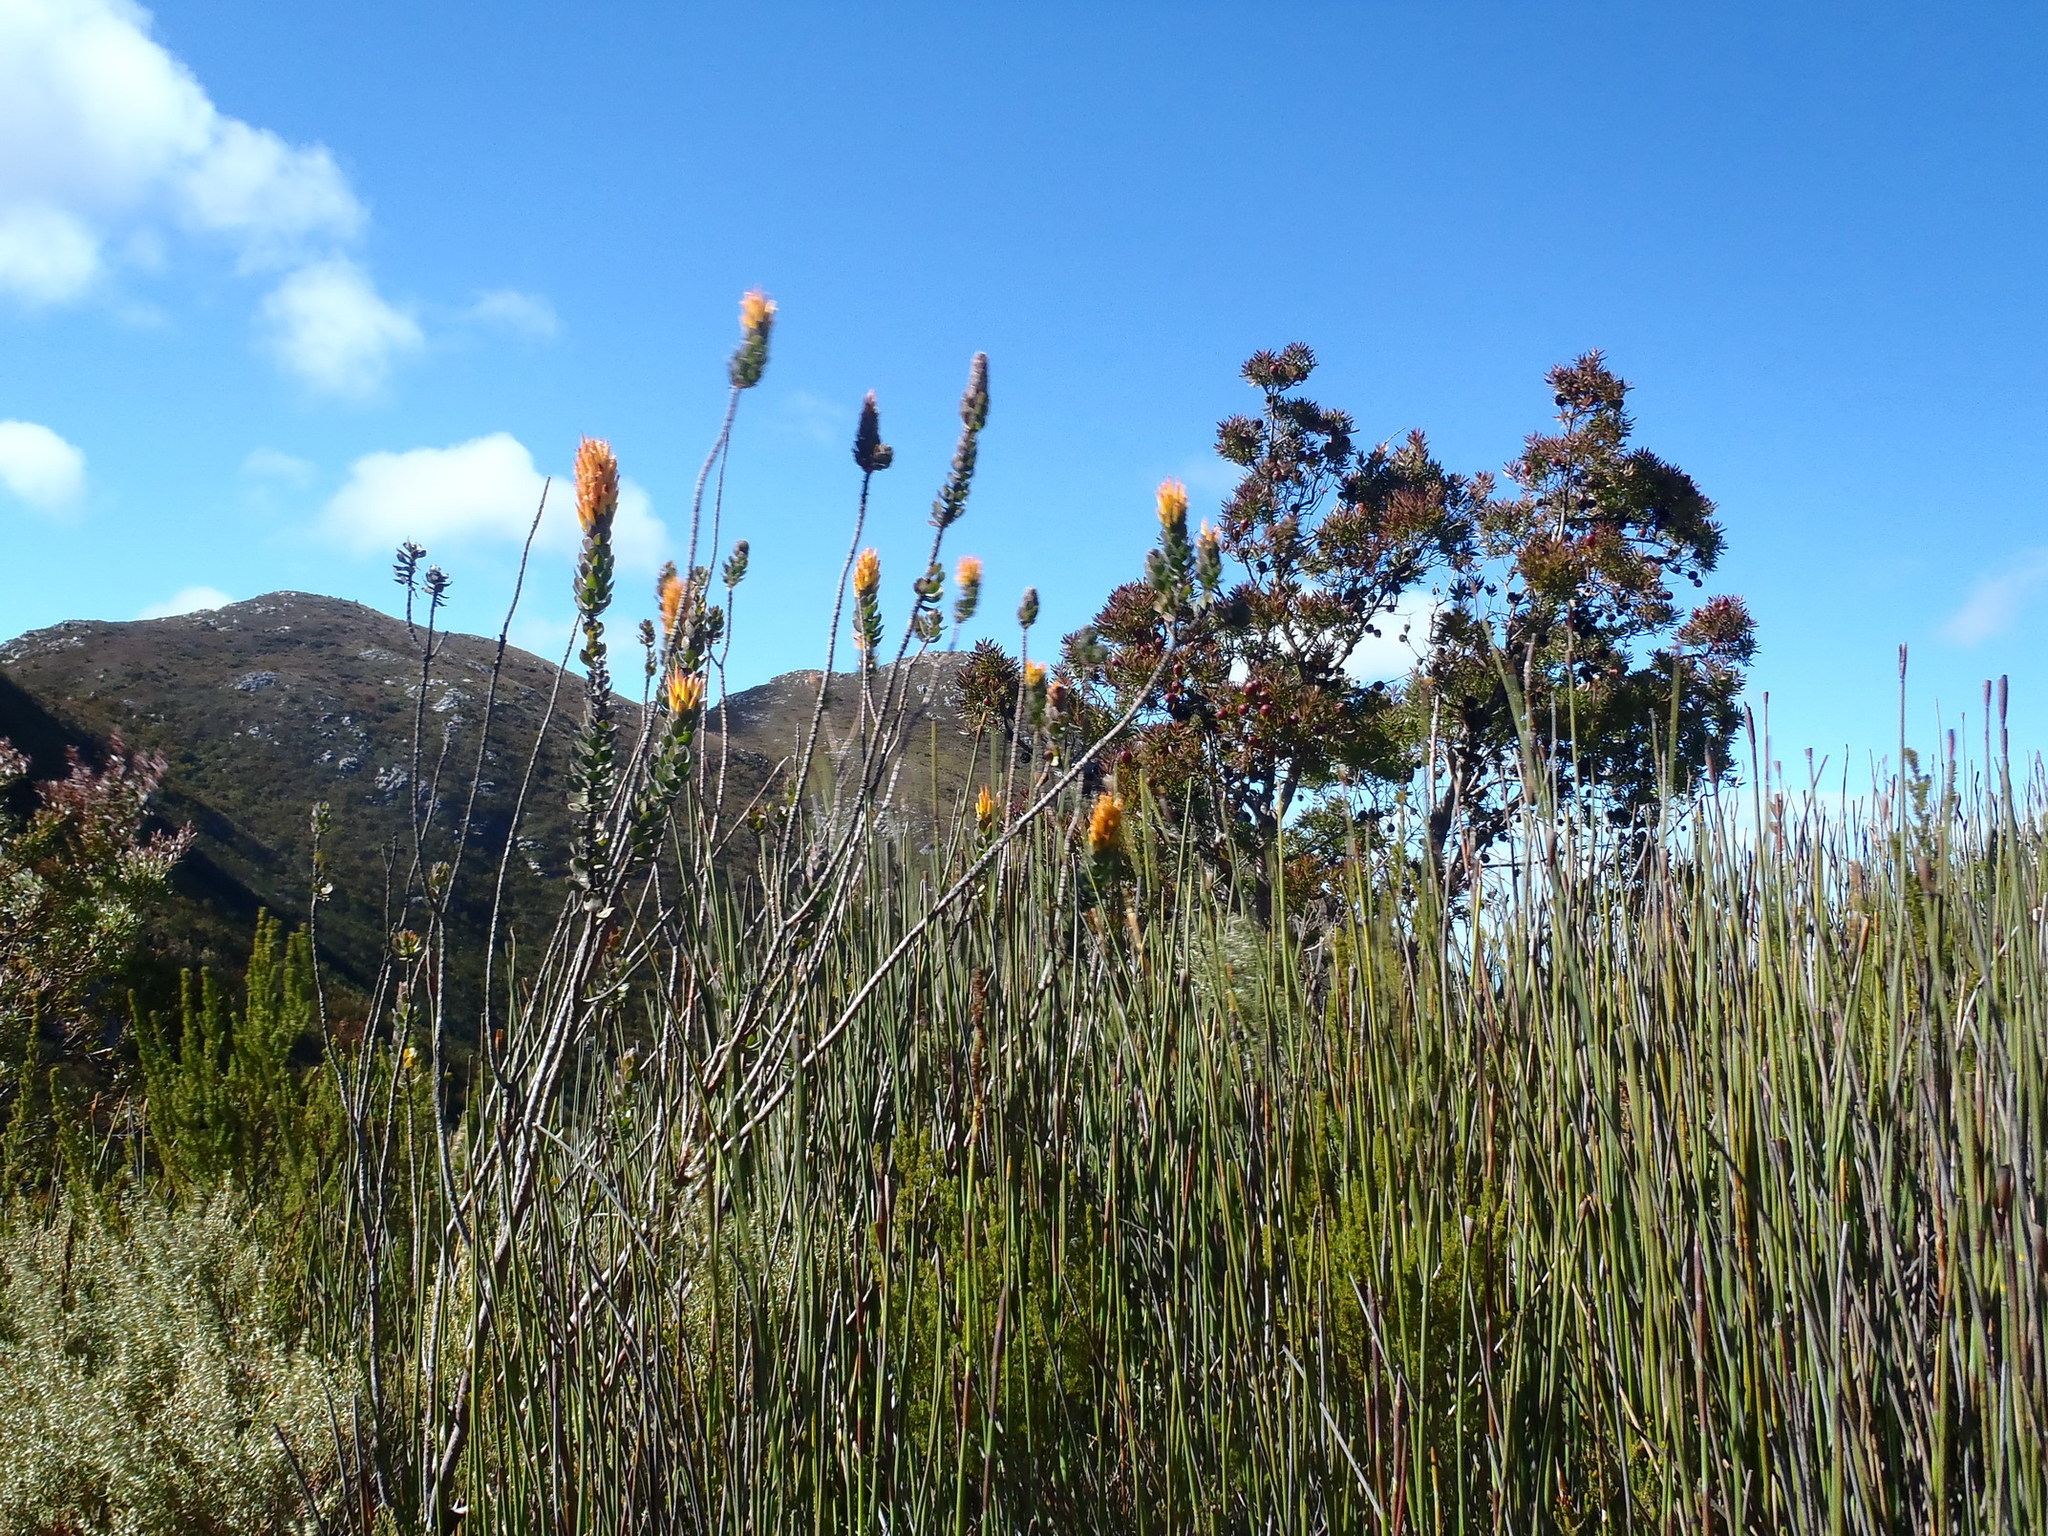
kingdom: Plantae
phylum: Tracheophyta
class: Magnoliopsida
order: Proteales
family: Proteaceae
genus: Mimetes
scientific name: Mimetes pauciflora
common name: Three-flowered pagoda
